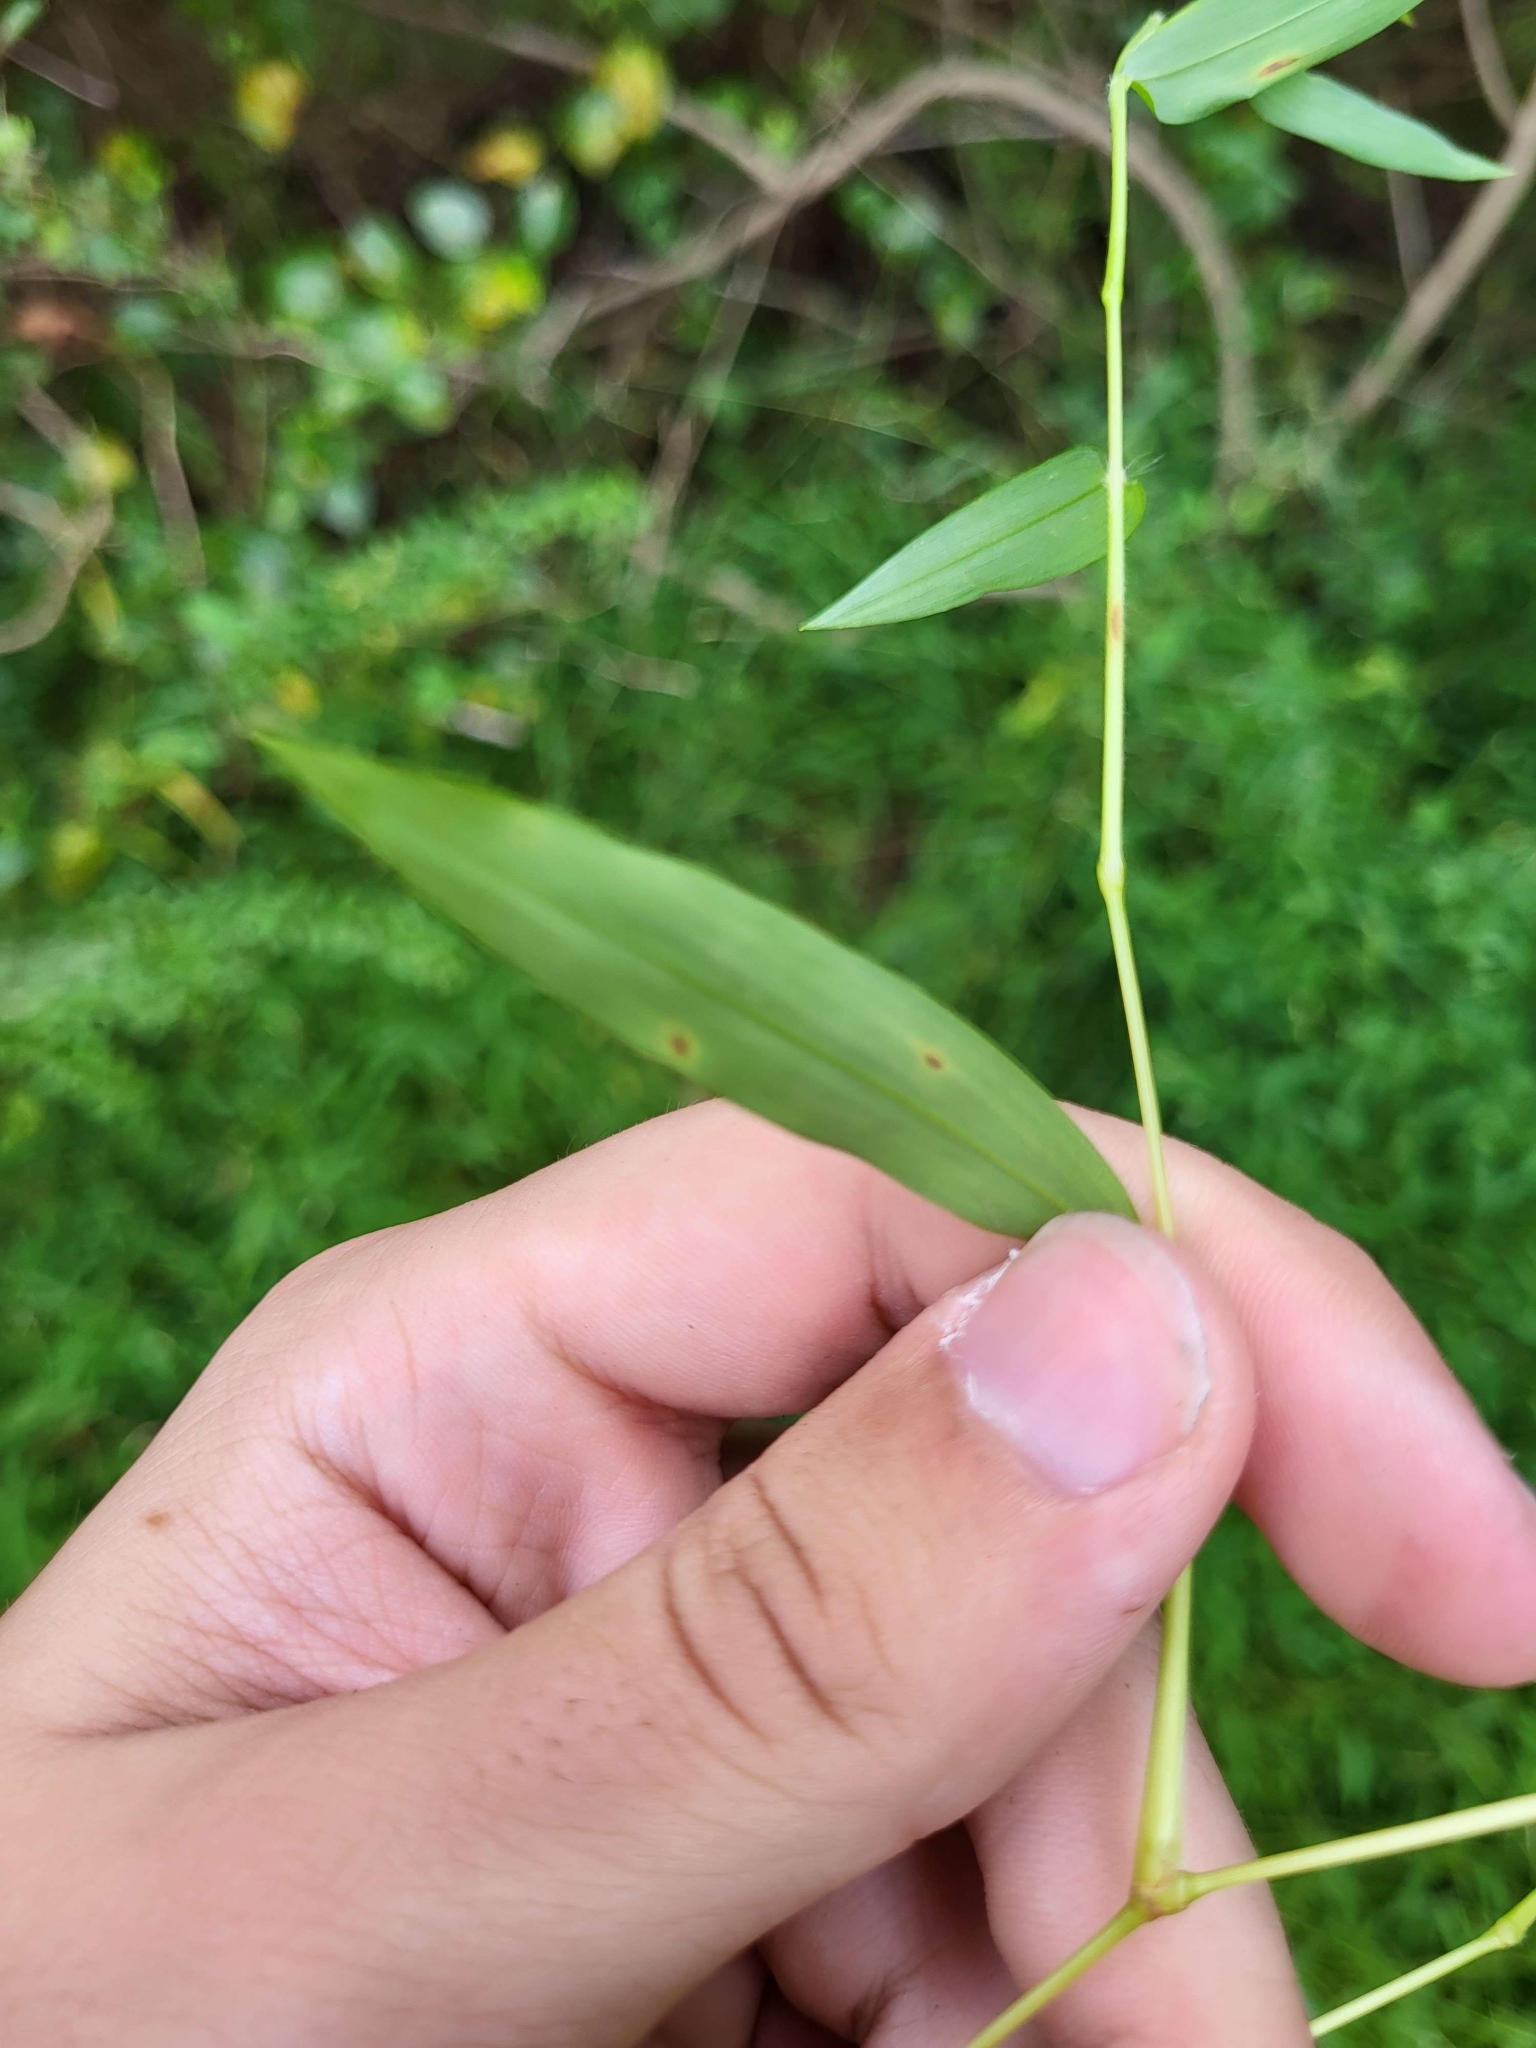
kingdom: Plantae
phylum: Tracheophyta
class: Liliopsida
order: Poales
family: Poaceae
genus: Microstegium
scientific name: Microstegium vimineum
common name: Japanese stiltgrass
